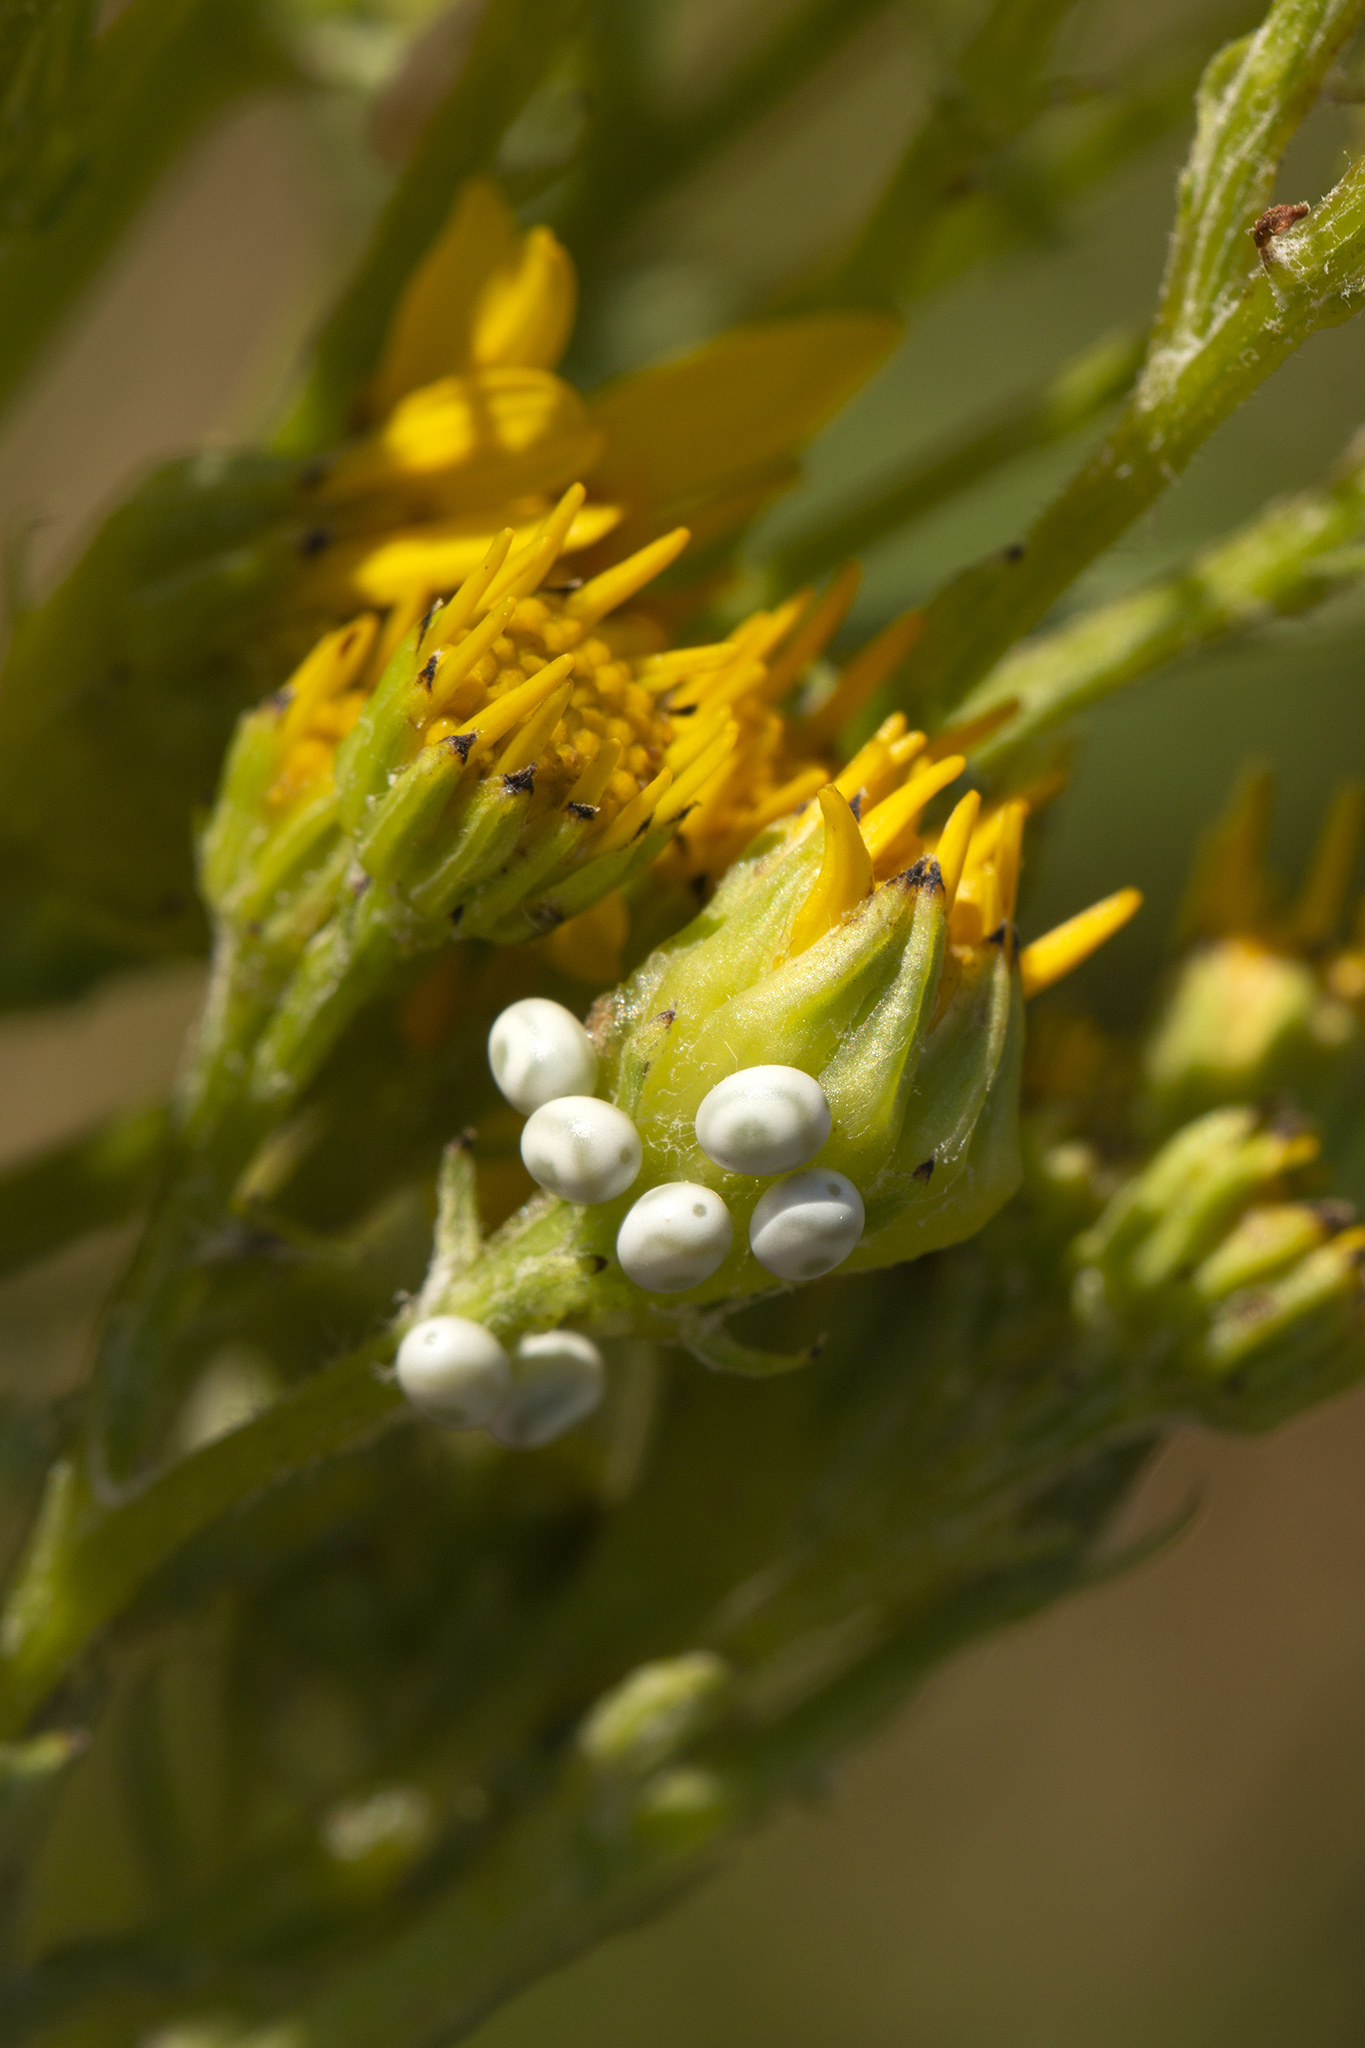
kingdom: Animalia
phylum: Arthropoda
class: Insecta
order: Lepidoptera
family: Lasiocampidae
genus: Euthrix
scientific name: Euthrix potatoria
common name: Drinker
